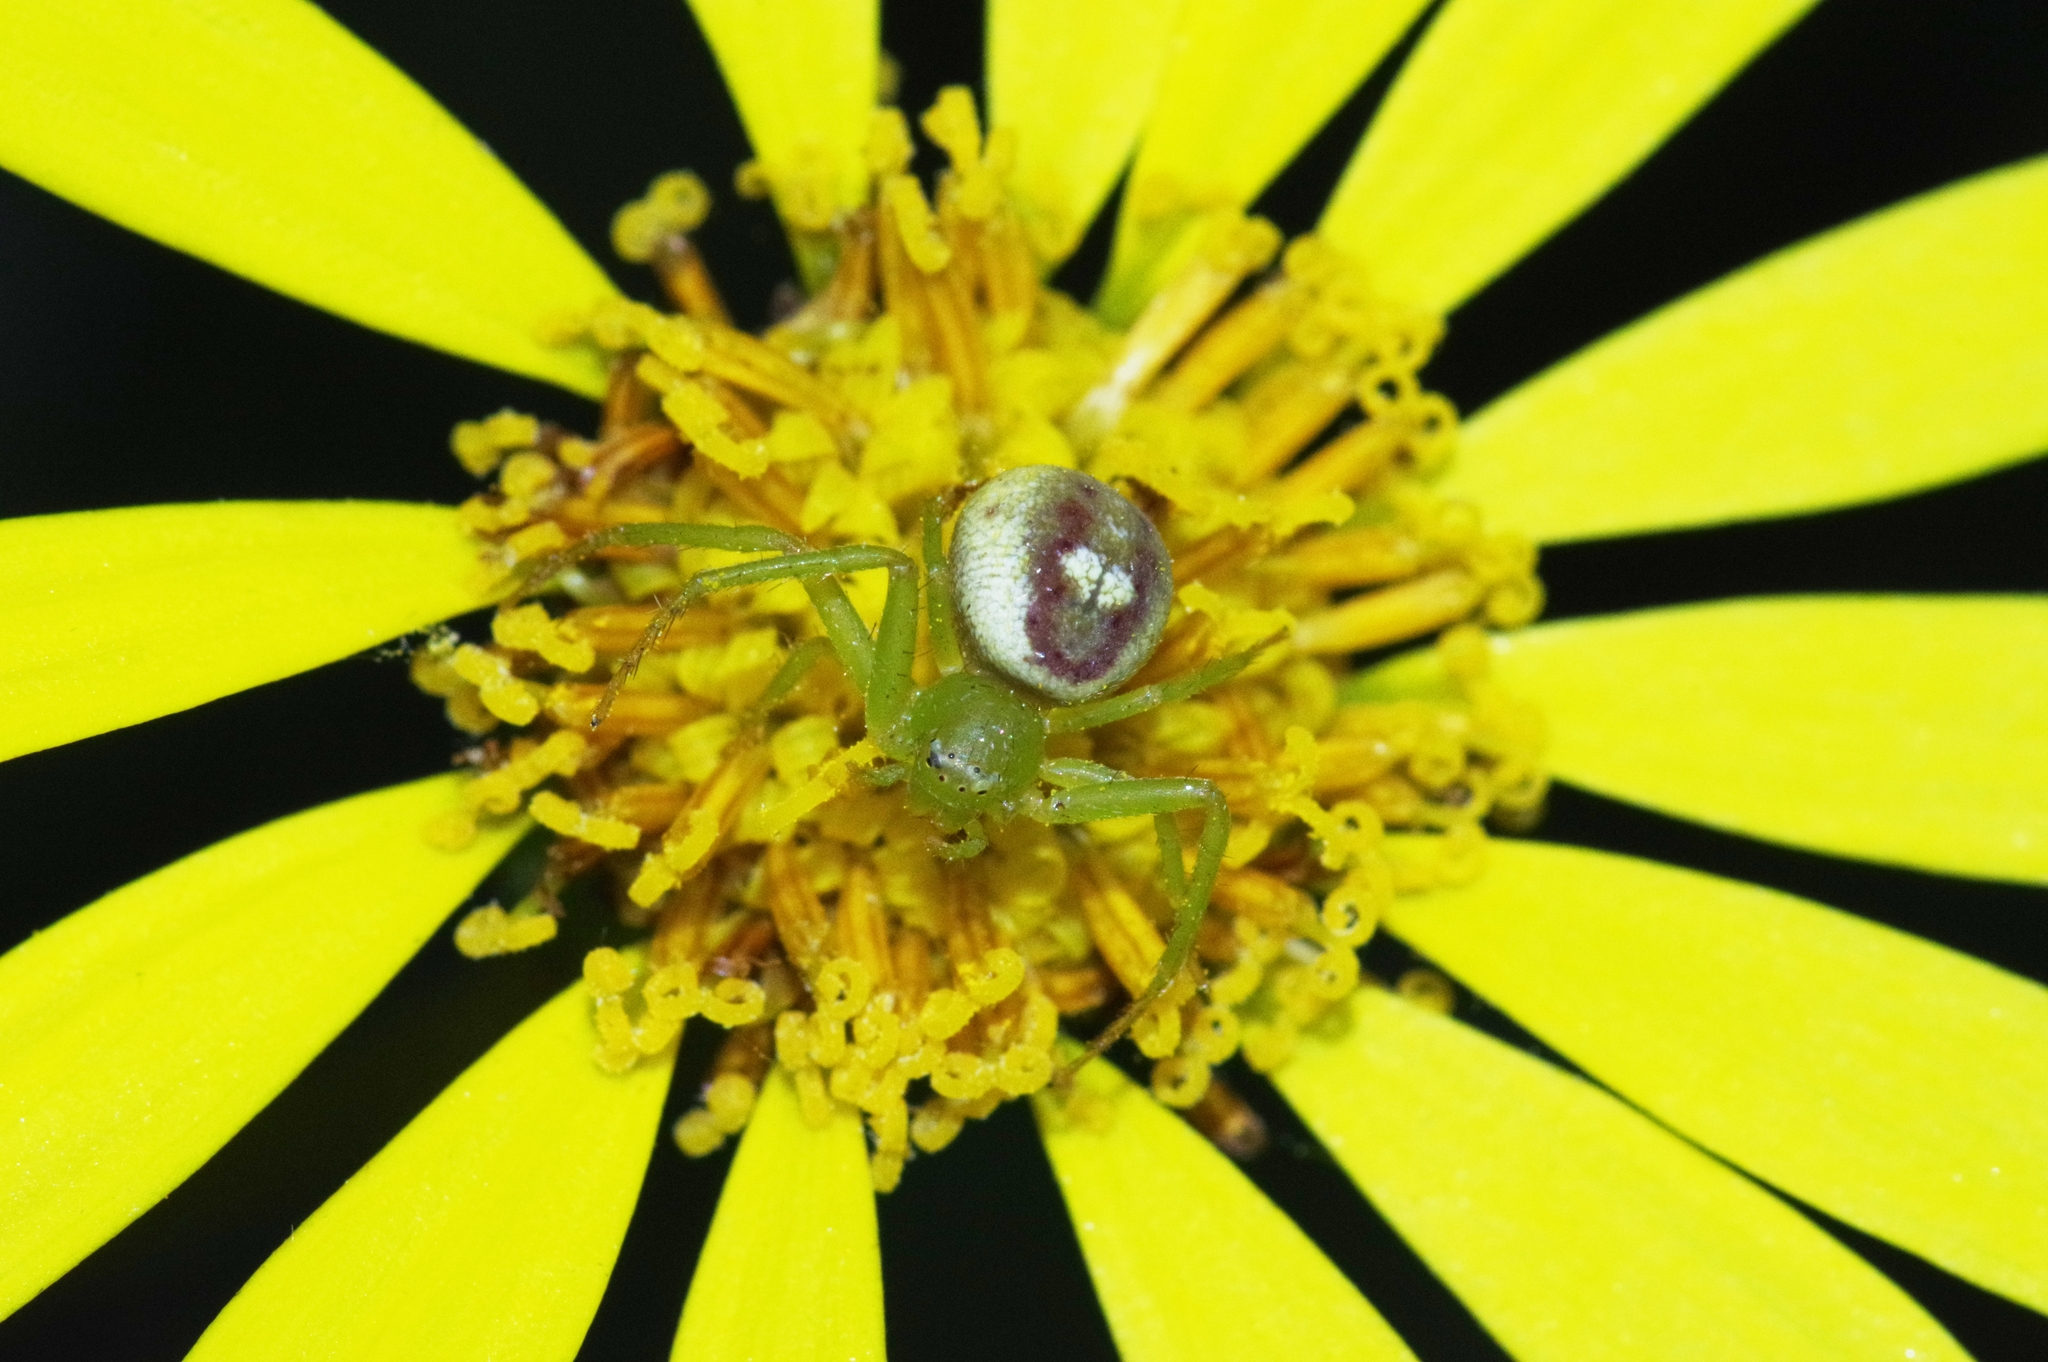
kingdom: Animalia
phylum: Arthropoda
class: Arachnida
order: Araneae
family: Thomisidae
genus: Diaea
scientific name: Diaea subdola
